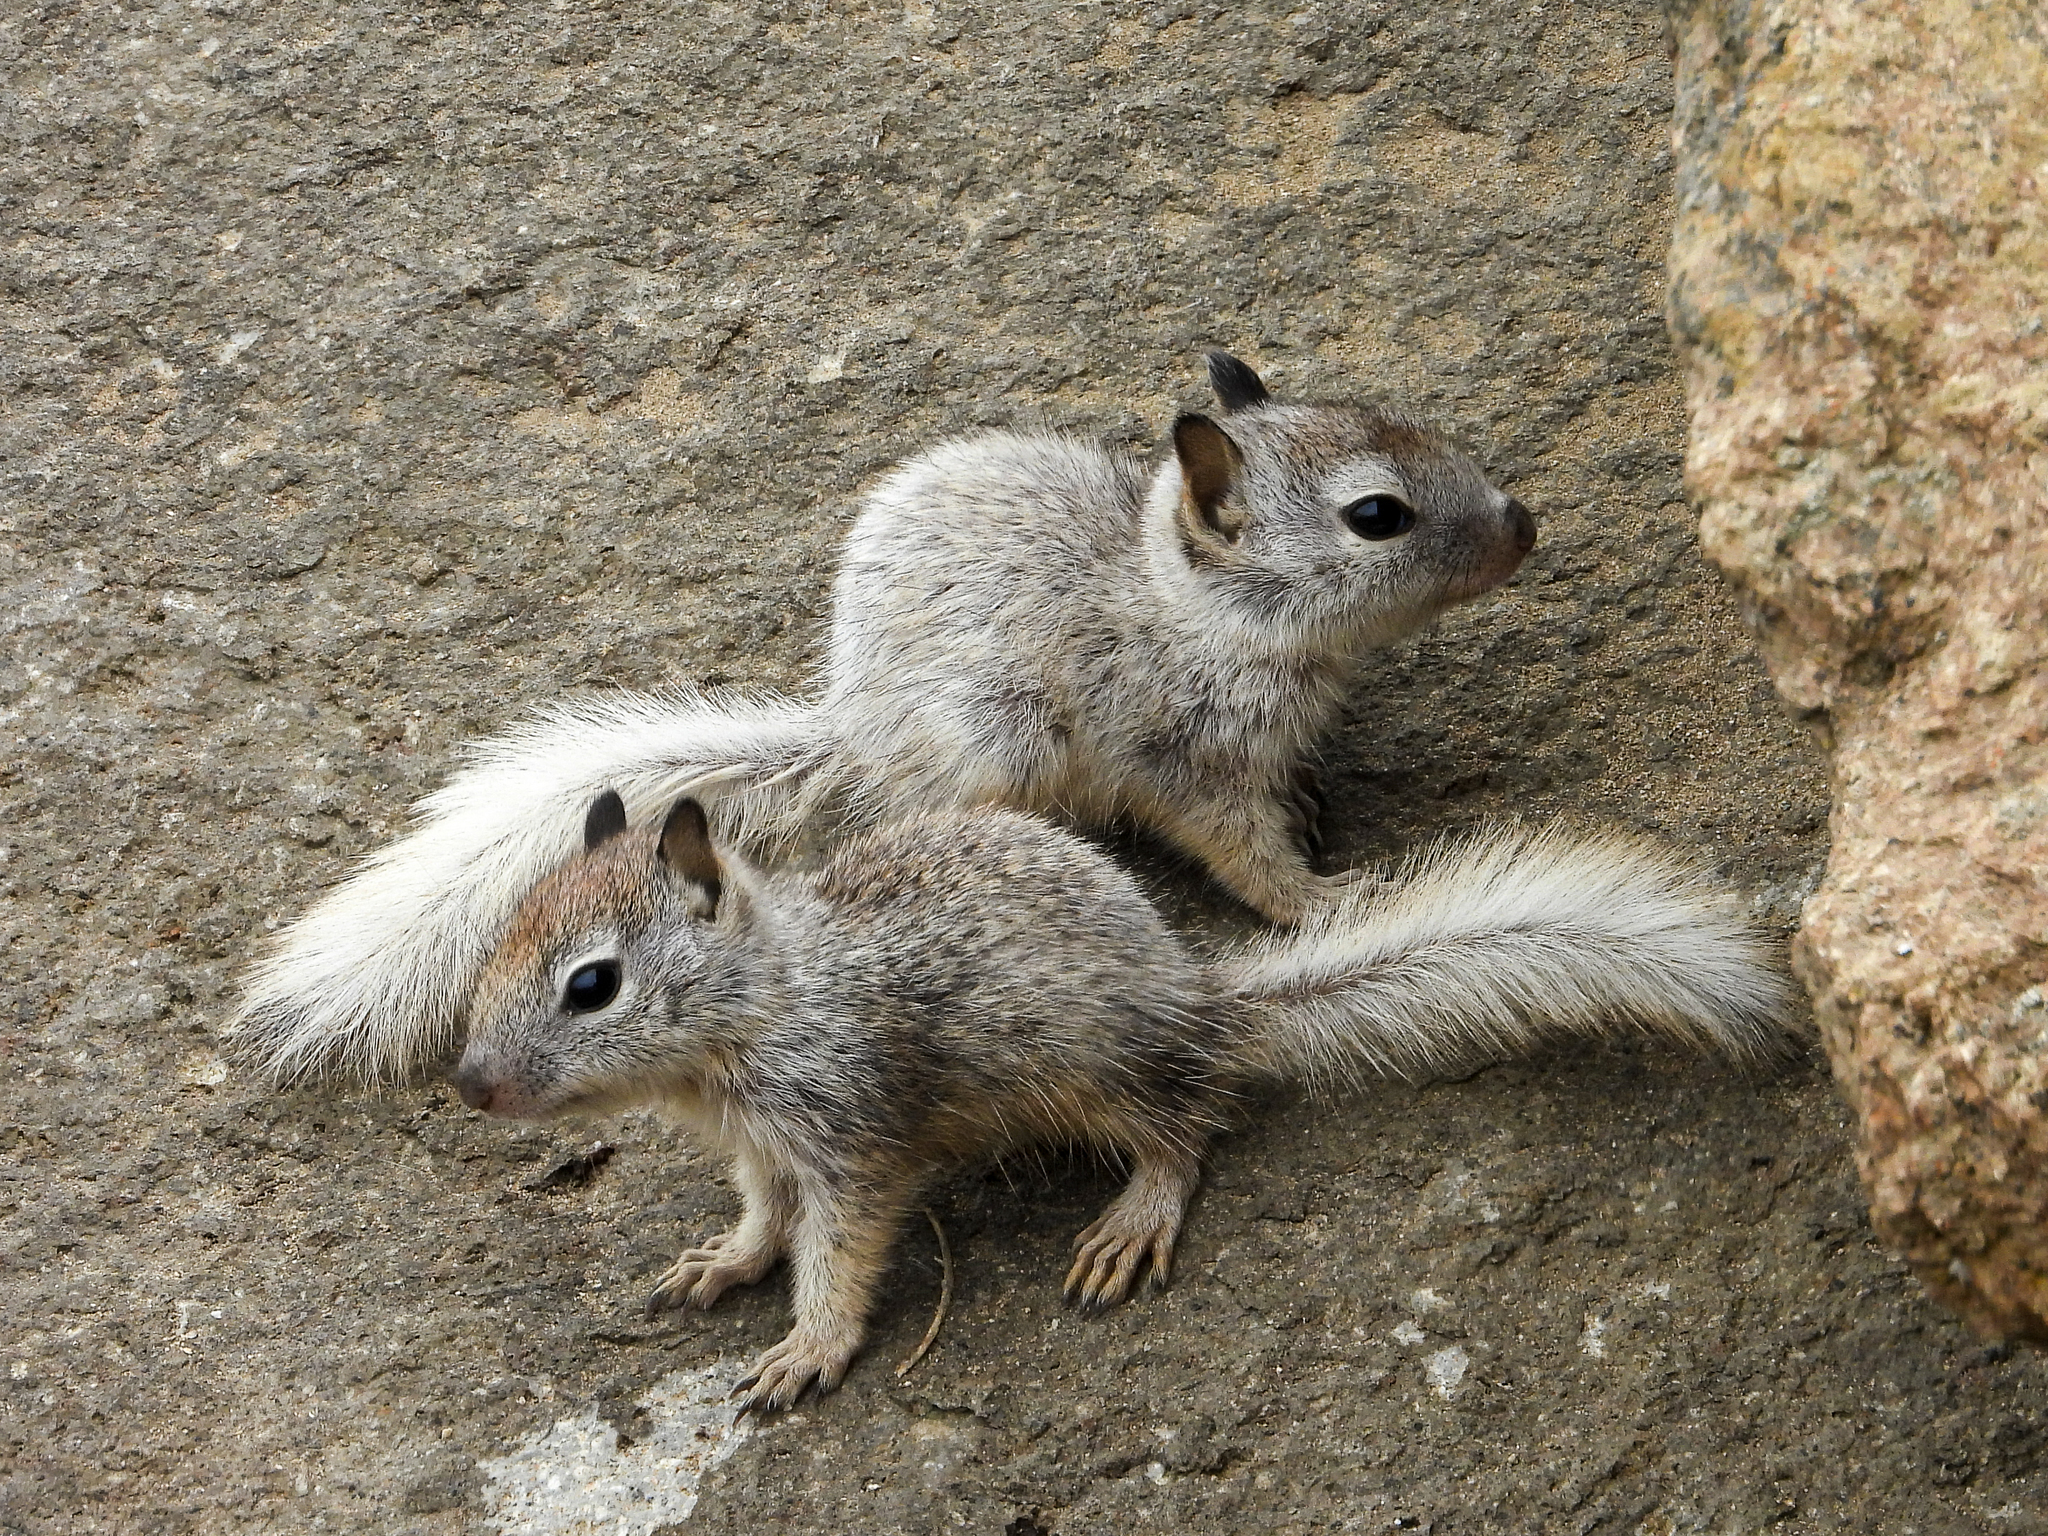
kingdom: Animalia
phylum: Chordata
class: Mammalia
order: Rodentia
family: Sciuridae
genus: Otospermophilus
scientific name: Otospermophilus beecheyi
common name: California ground squirrel
